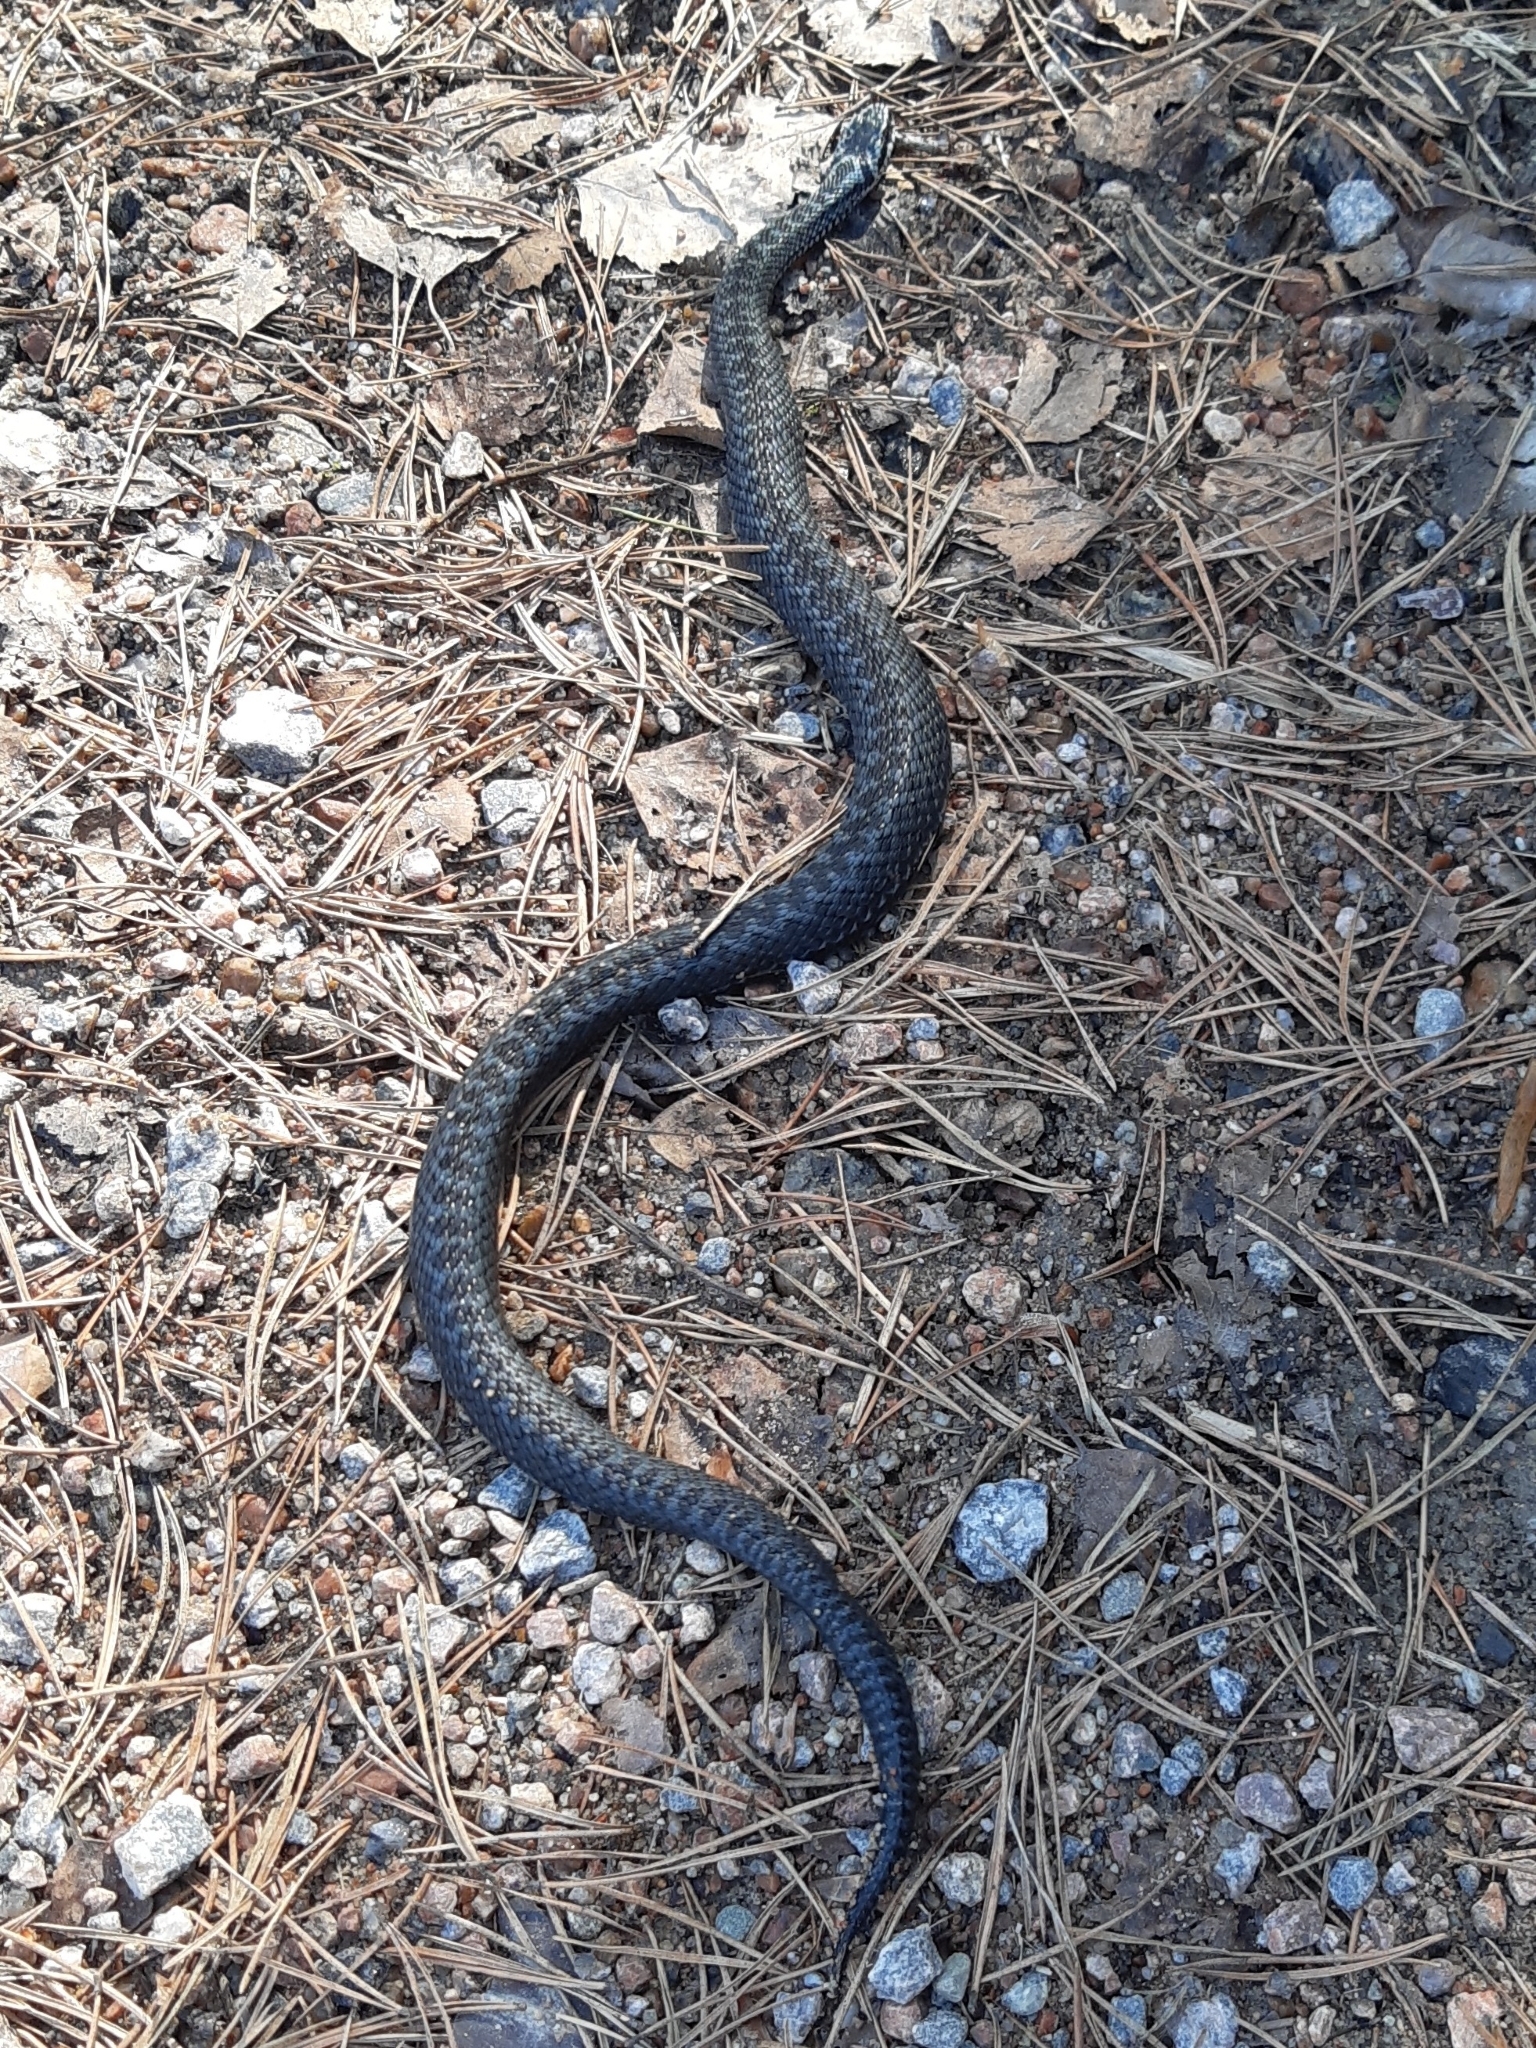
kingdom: Animalia
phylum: Chordata
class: Squamata
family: Viperidae
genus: Vipera
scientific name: Vipera berus
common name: Adder
